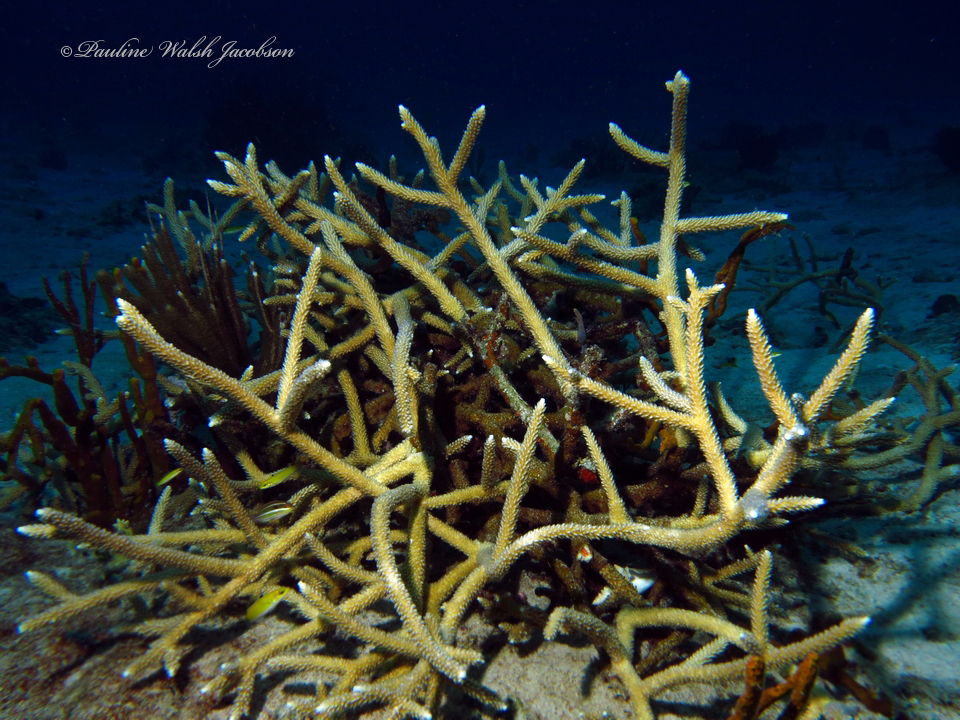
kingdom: Animalia
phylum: Cnidaria
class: Anthozoa
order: Scleractinia
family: Acroporidae
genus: Acropora
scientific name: Acropora cervicornis
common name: Staghorn coral
